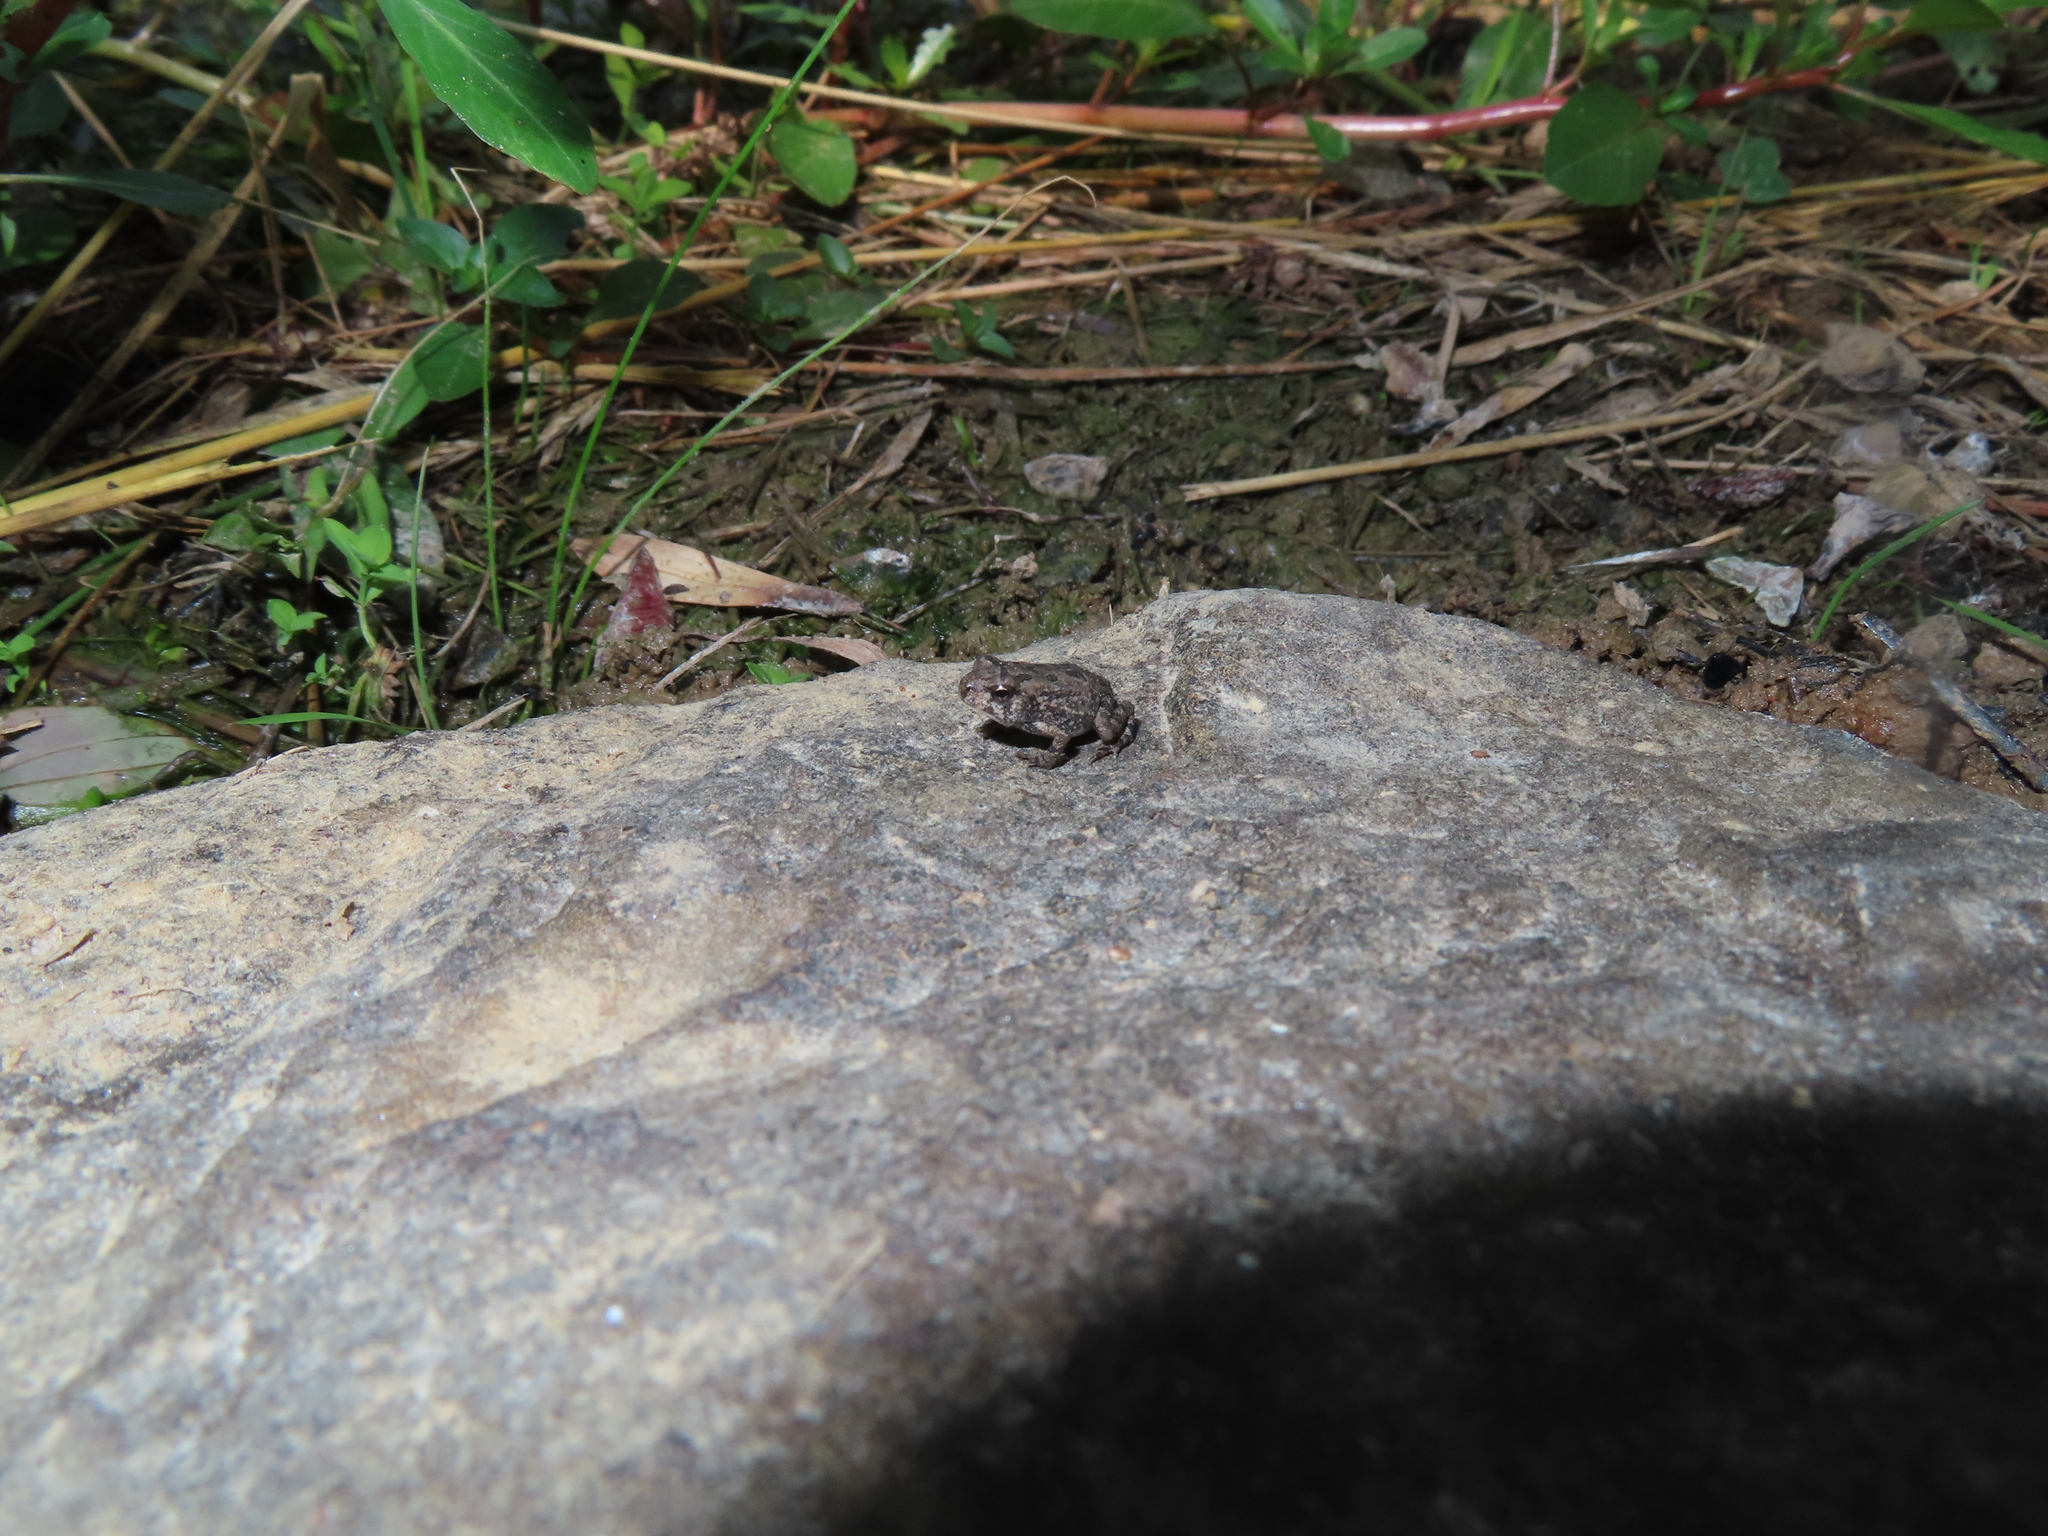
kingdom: Animalia
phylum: Chordata
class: Amphibia
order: Anura
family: Bufonidae
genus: Anaxyrus
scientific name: Anaxyrus americanus
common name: American toad
